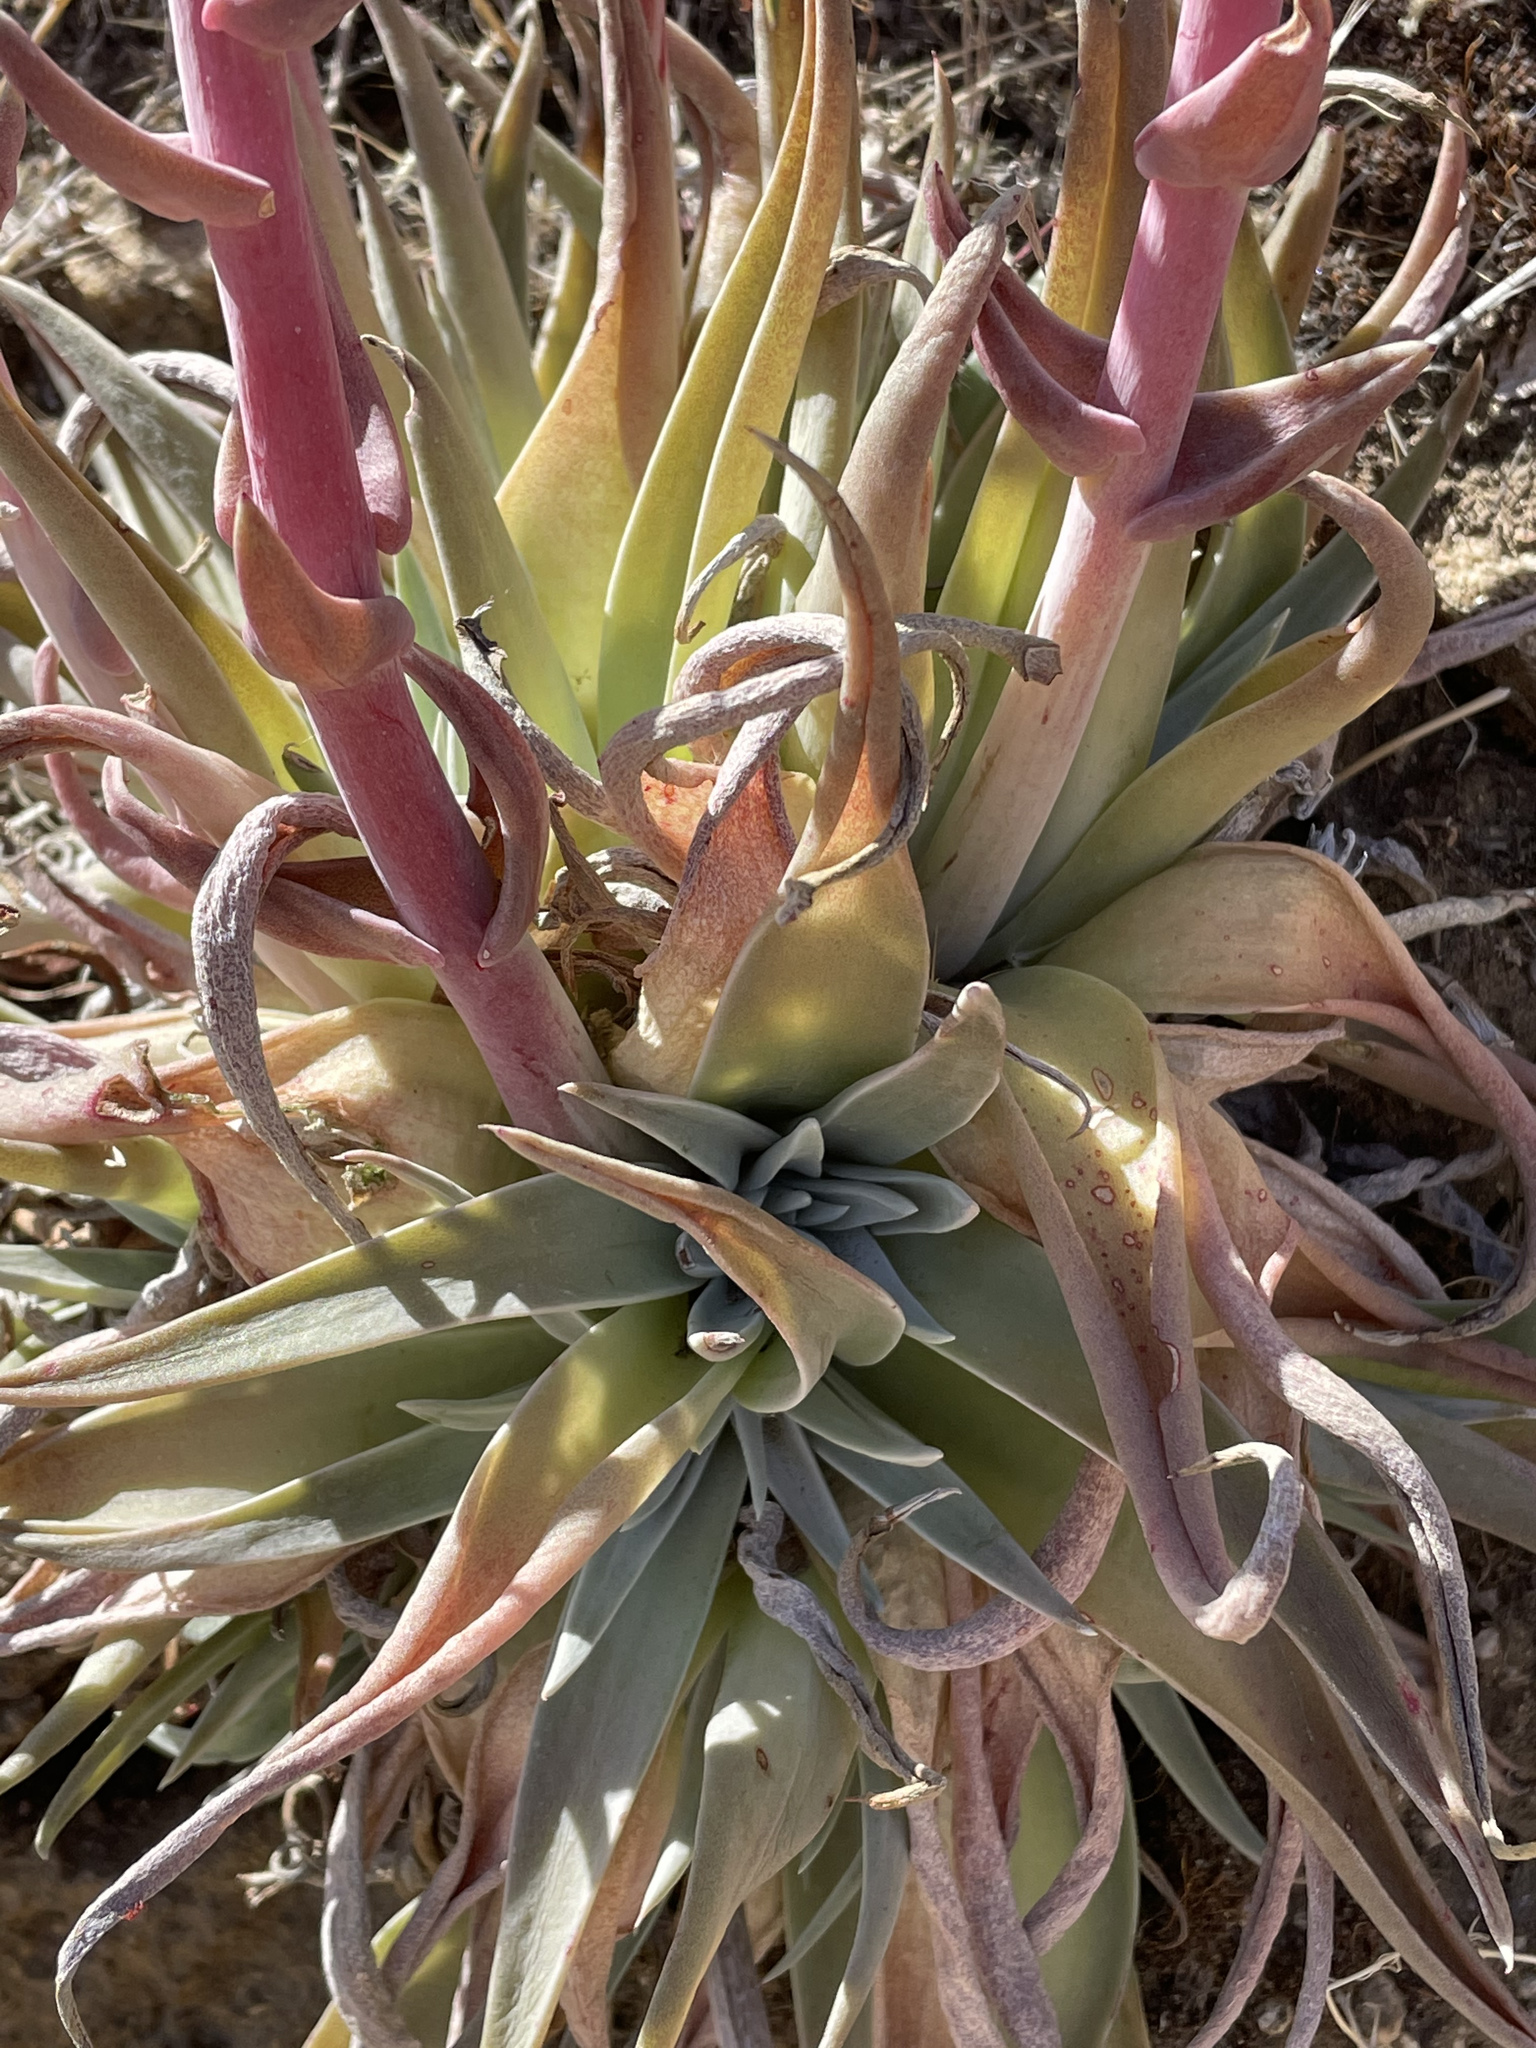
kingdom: Plantae
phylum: Tracheophyta
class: Magnoliopsida
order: Saxifragales
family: Crassulaceae
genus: Dudleya
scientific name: Dudleya saxosa
